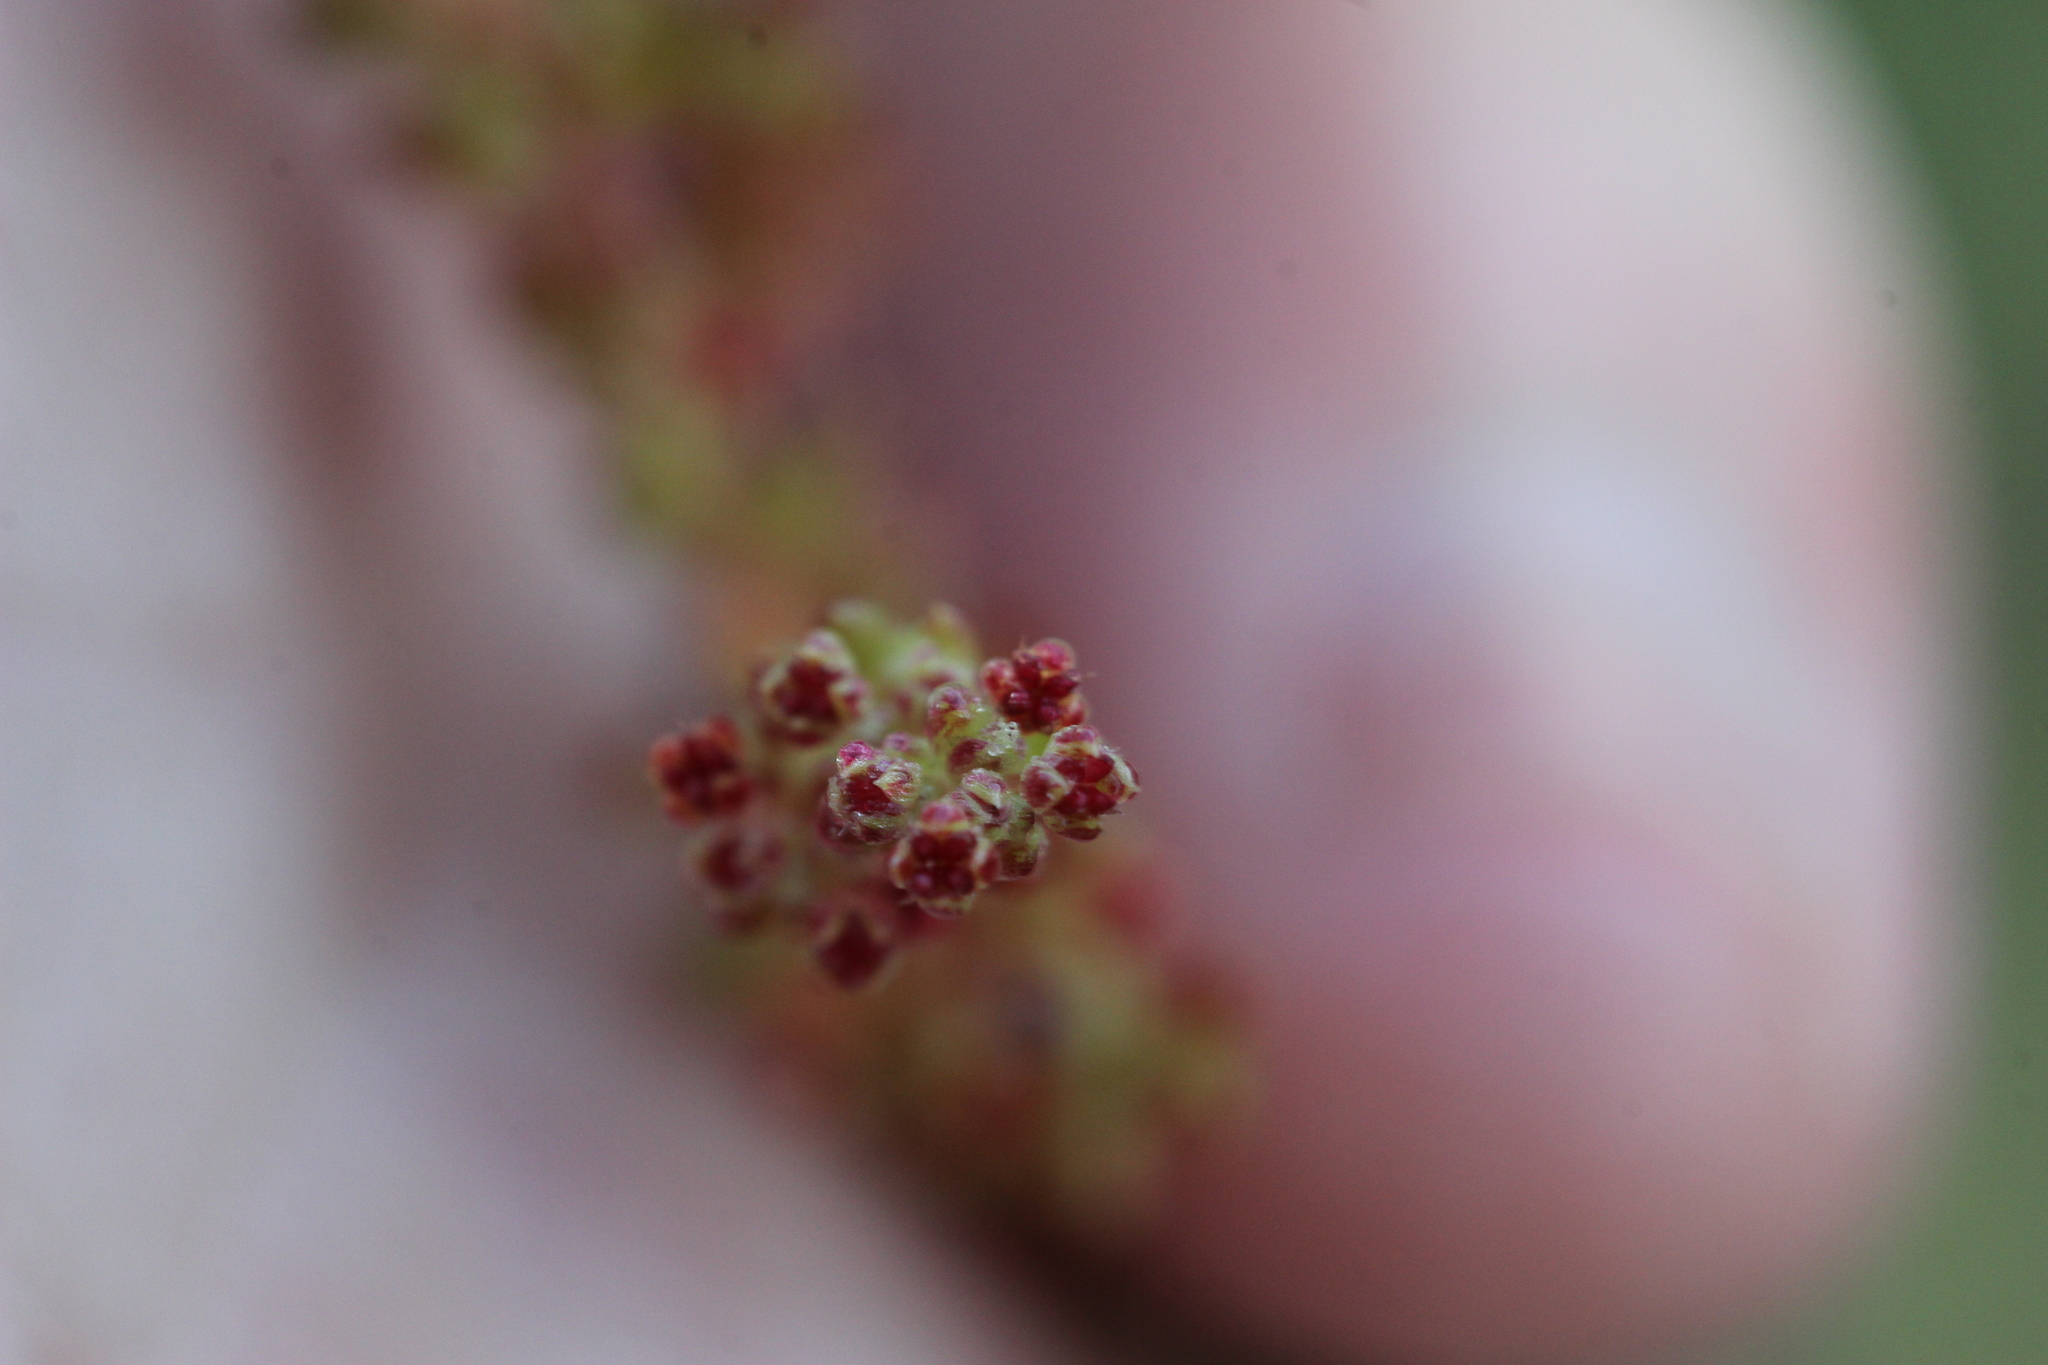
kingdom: Plantae
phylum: Tracheophyta
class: Magnoliopsida
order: Saxifragales
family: Crassulaceae
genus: Crassula
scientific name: Crassula connata
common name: Erect pygmyweed
